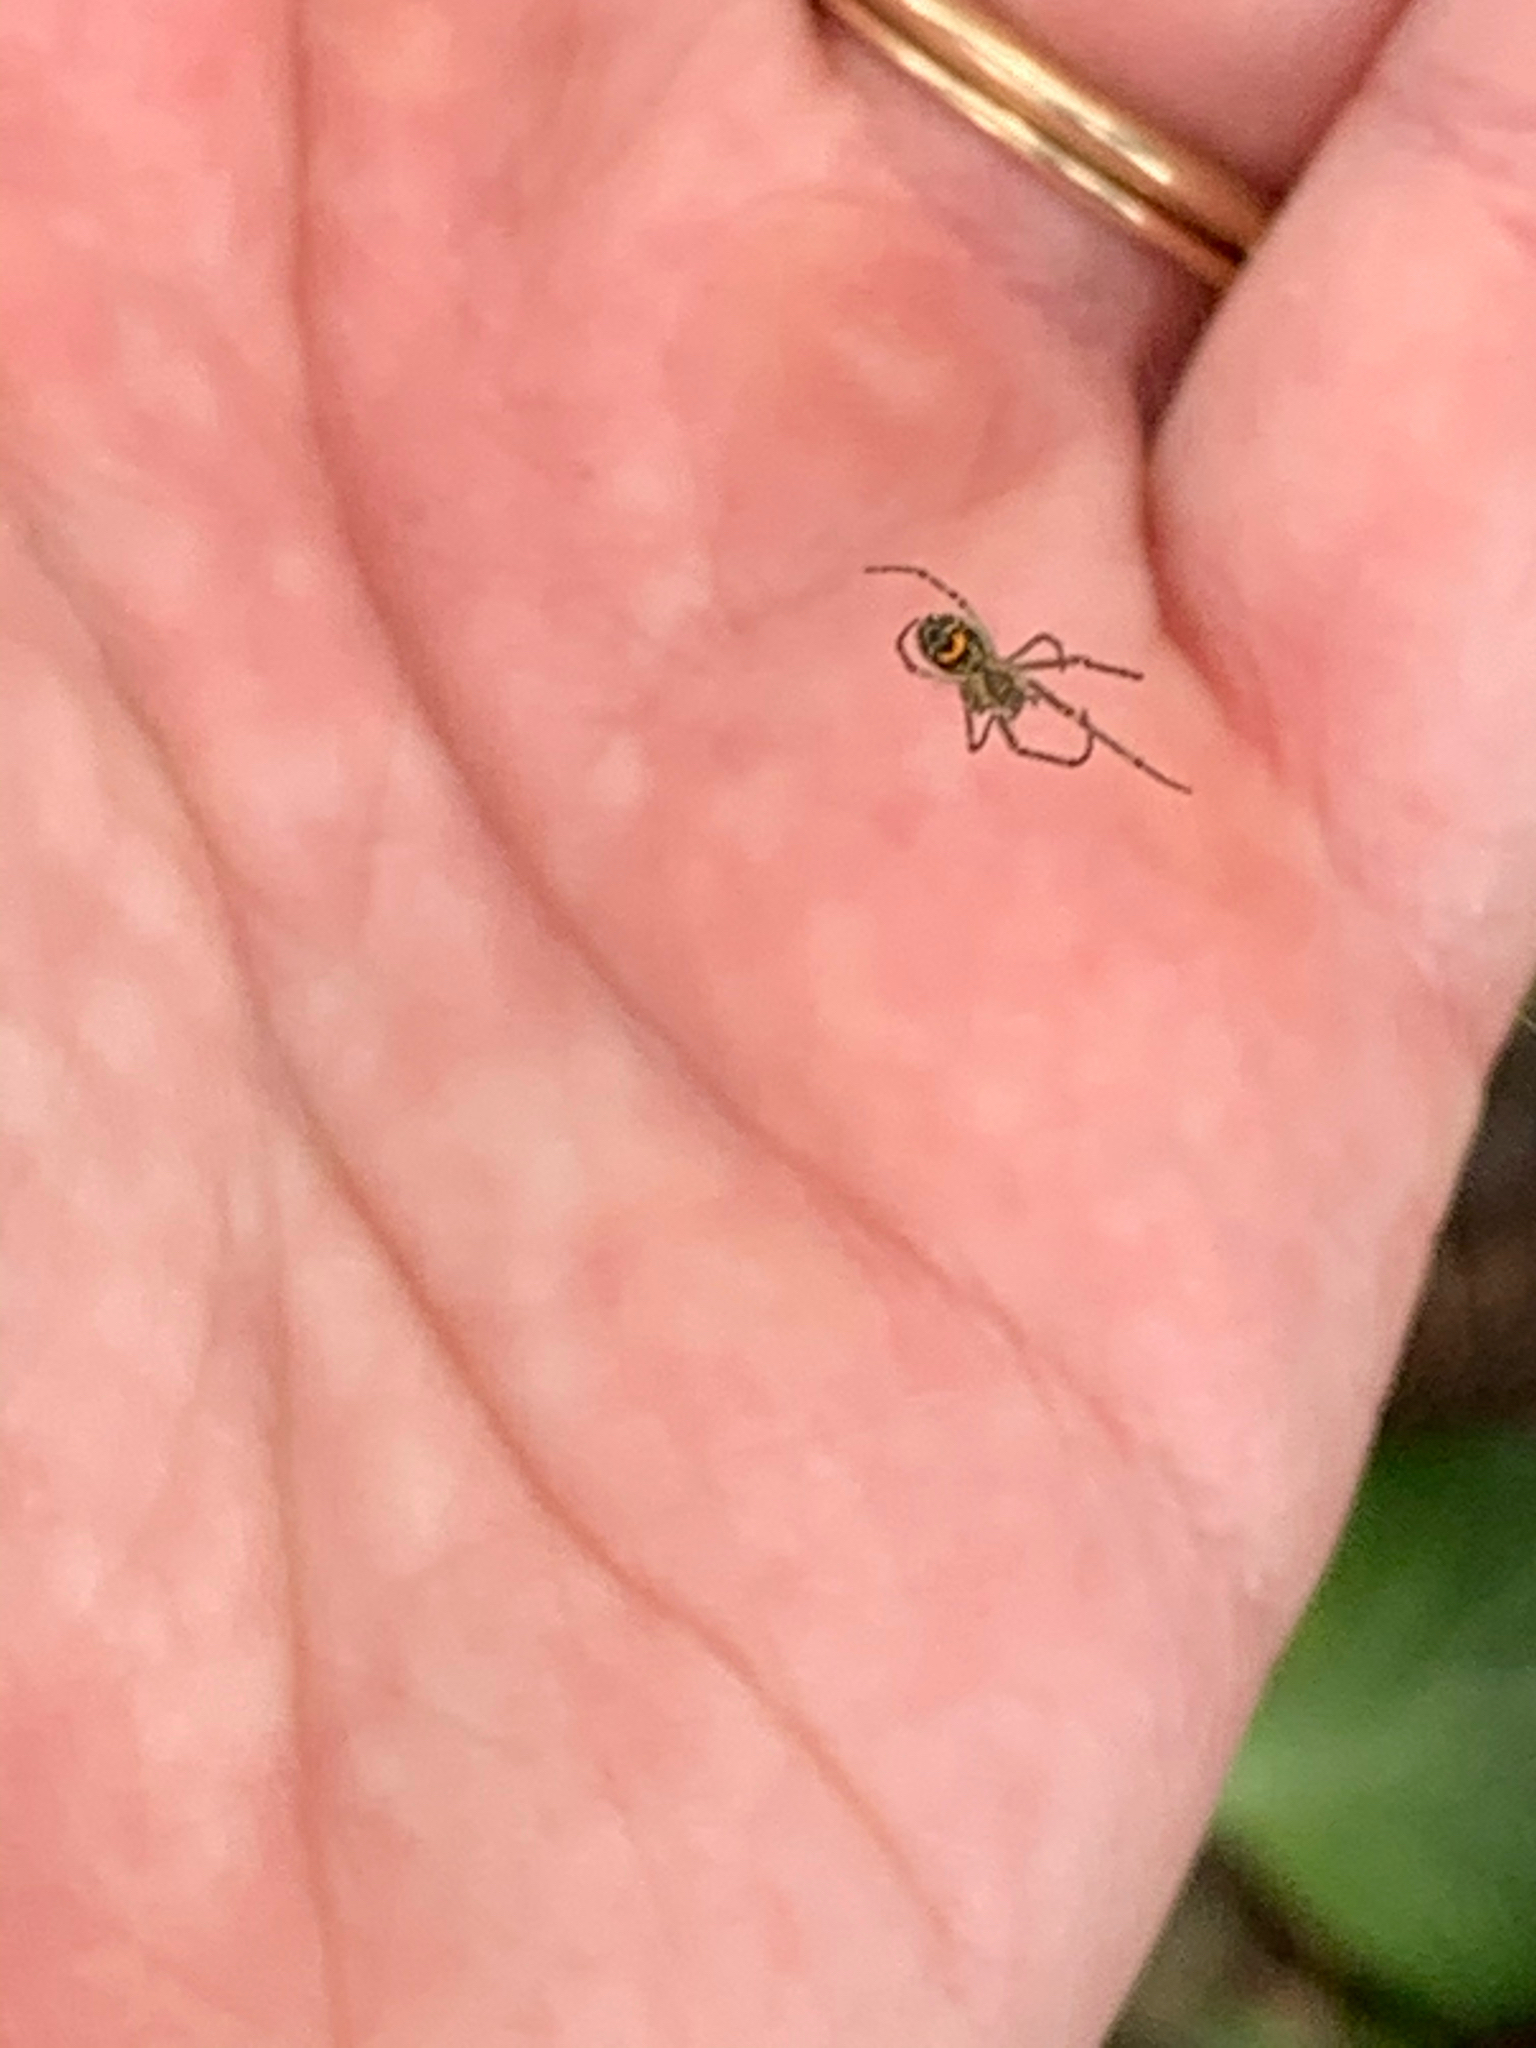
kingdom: Animalia
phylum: Arthropoda
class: Arachnida
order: Araneae
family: Tetragnathidae
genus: Leucauge
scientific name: Leucauge venusta
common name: Longjawed orb weavers
